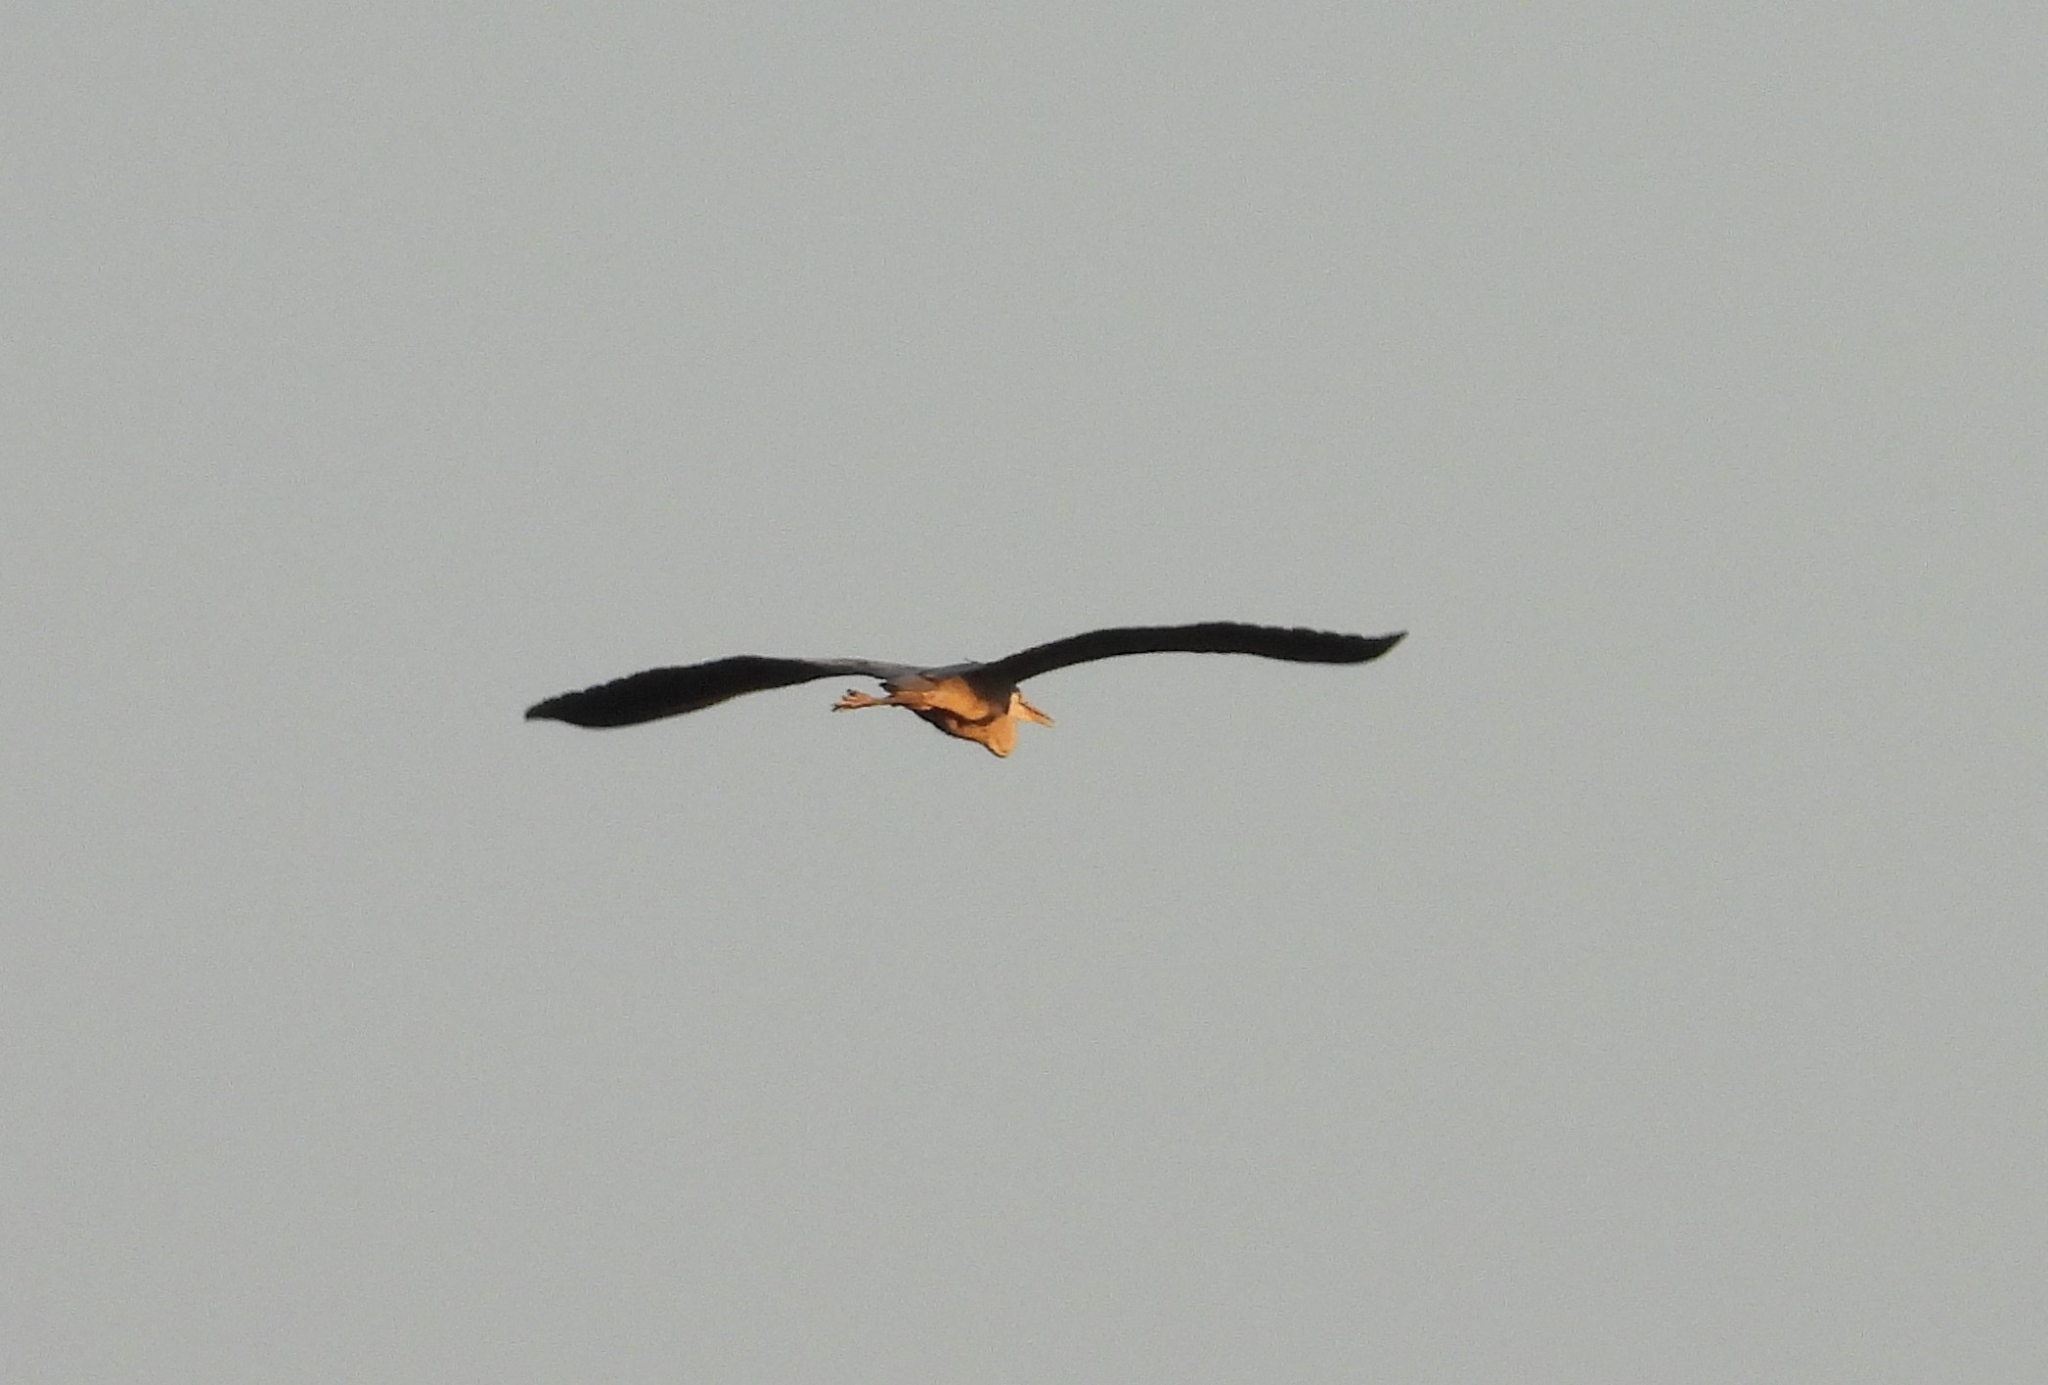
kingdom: Animalia
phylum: Chordata
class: Aves
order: Pelecaniformes
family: Ardeidae
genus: Ardea
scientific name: Ardea cinerea
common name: Grey heron
